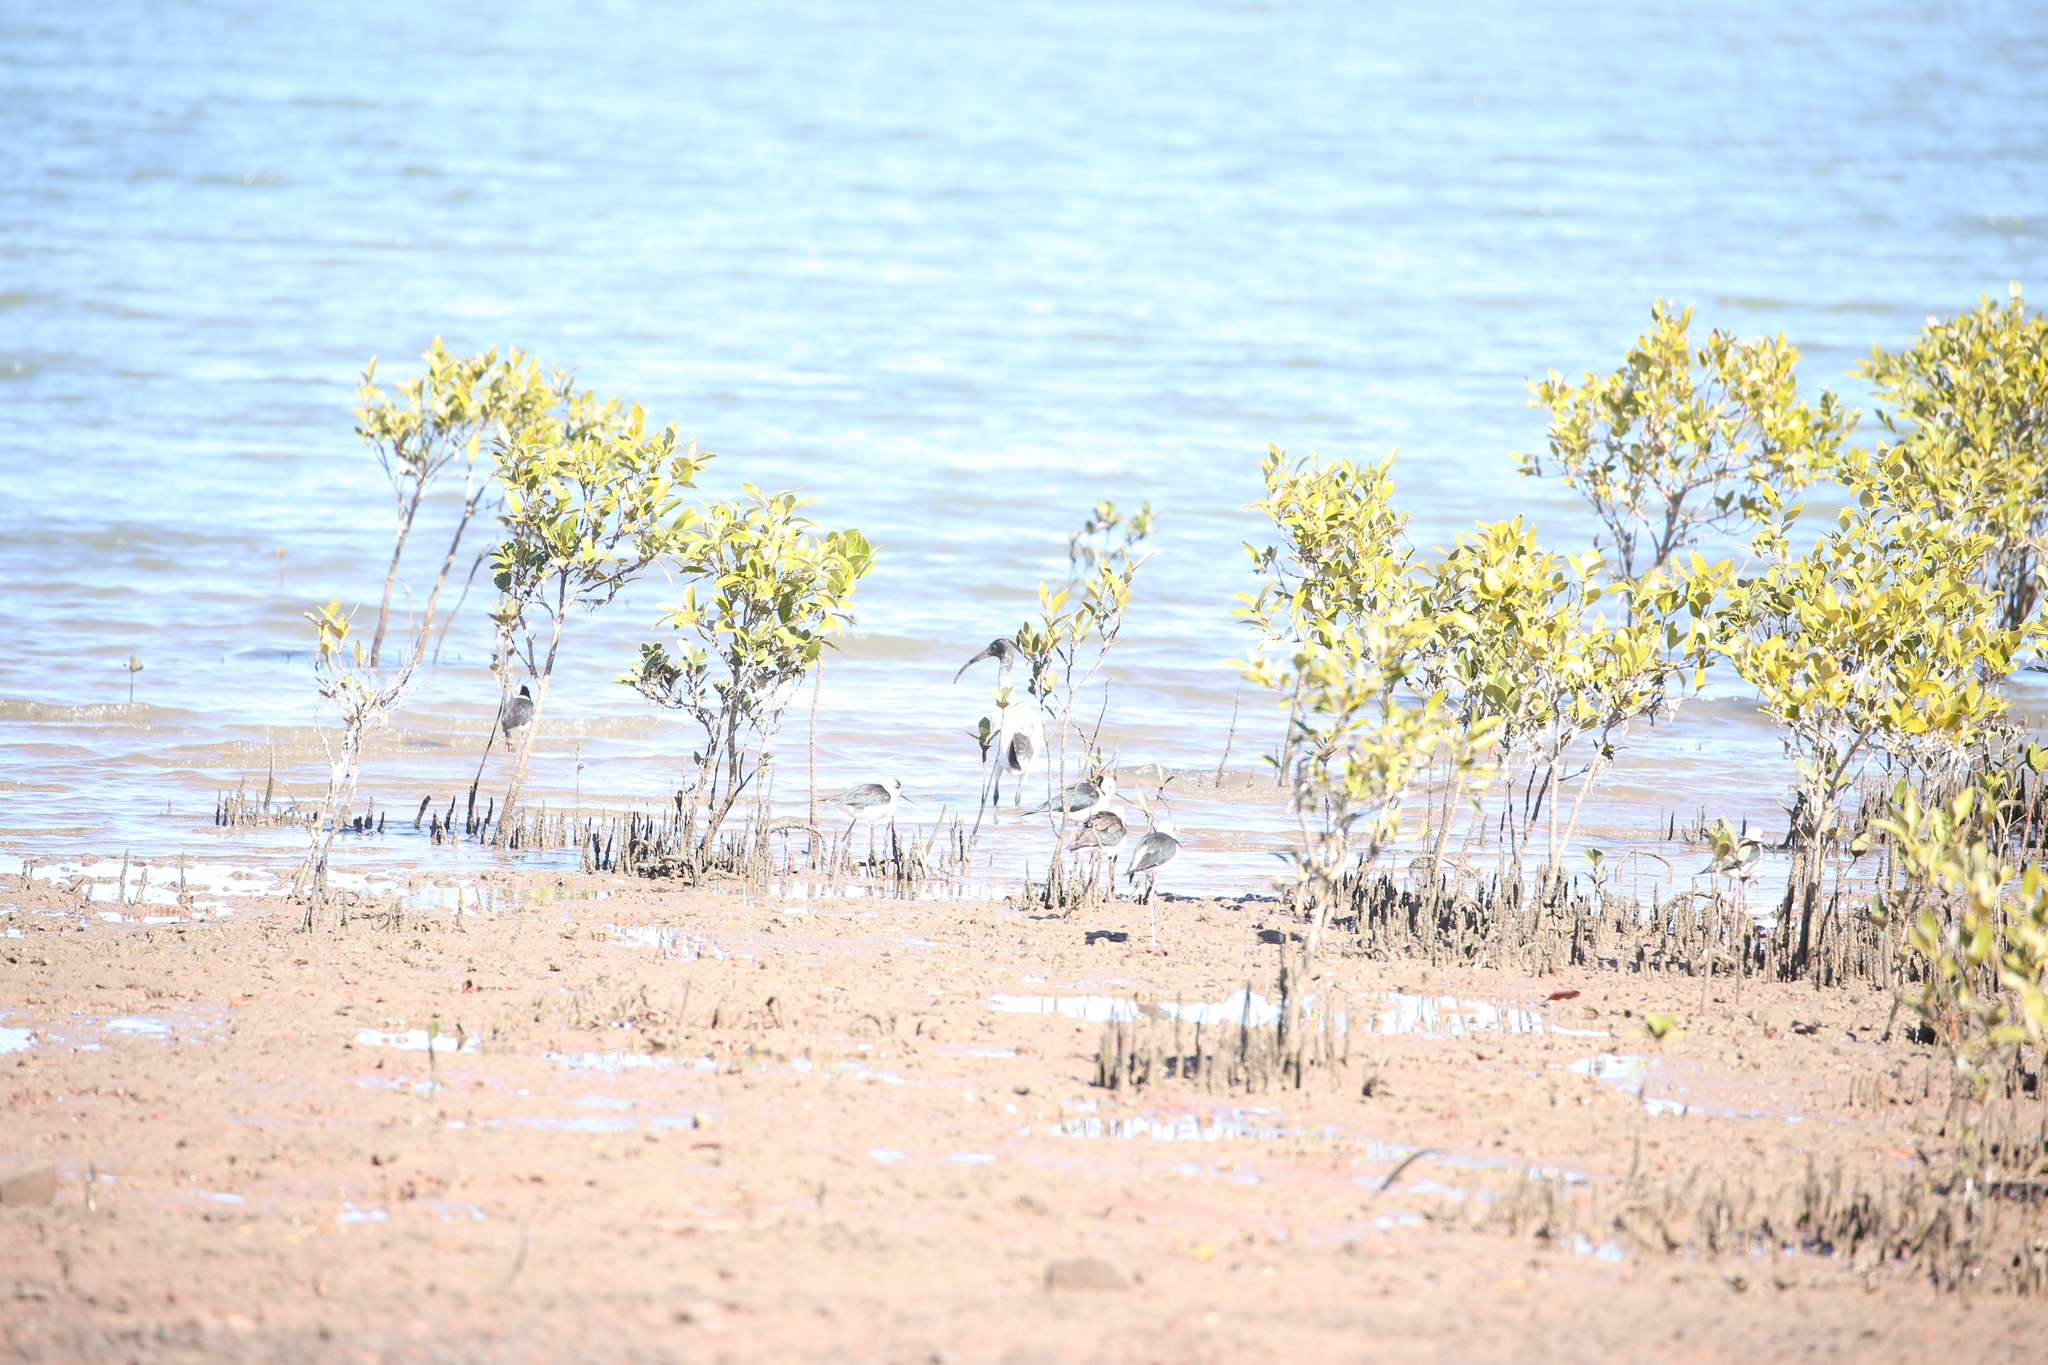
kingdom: Animalia
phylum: Chordata
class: Aves
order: Charadriiformes
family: Recurvirostridae
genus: Himantopus
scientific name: Himantopus leucocephalus
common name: White-headed stilt
